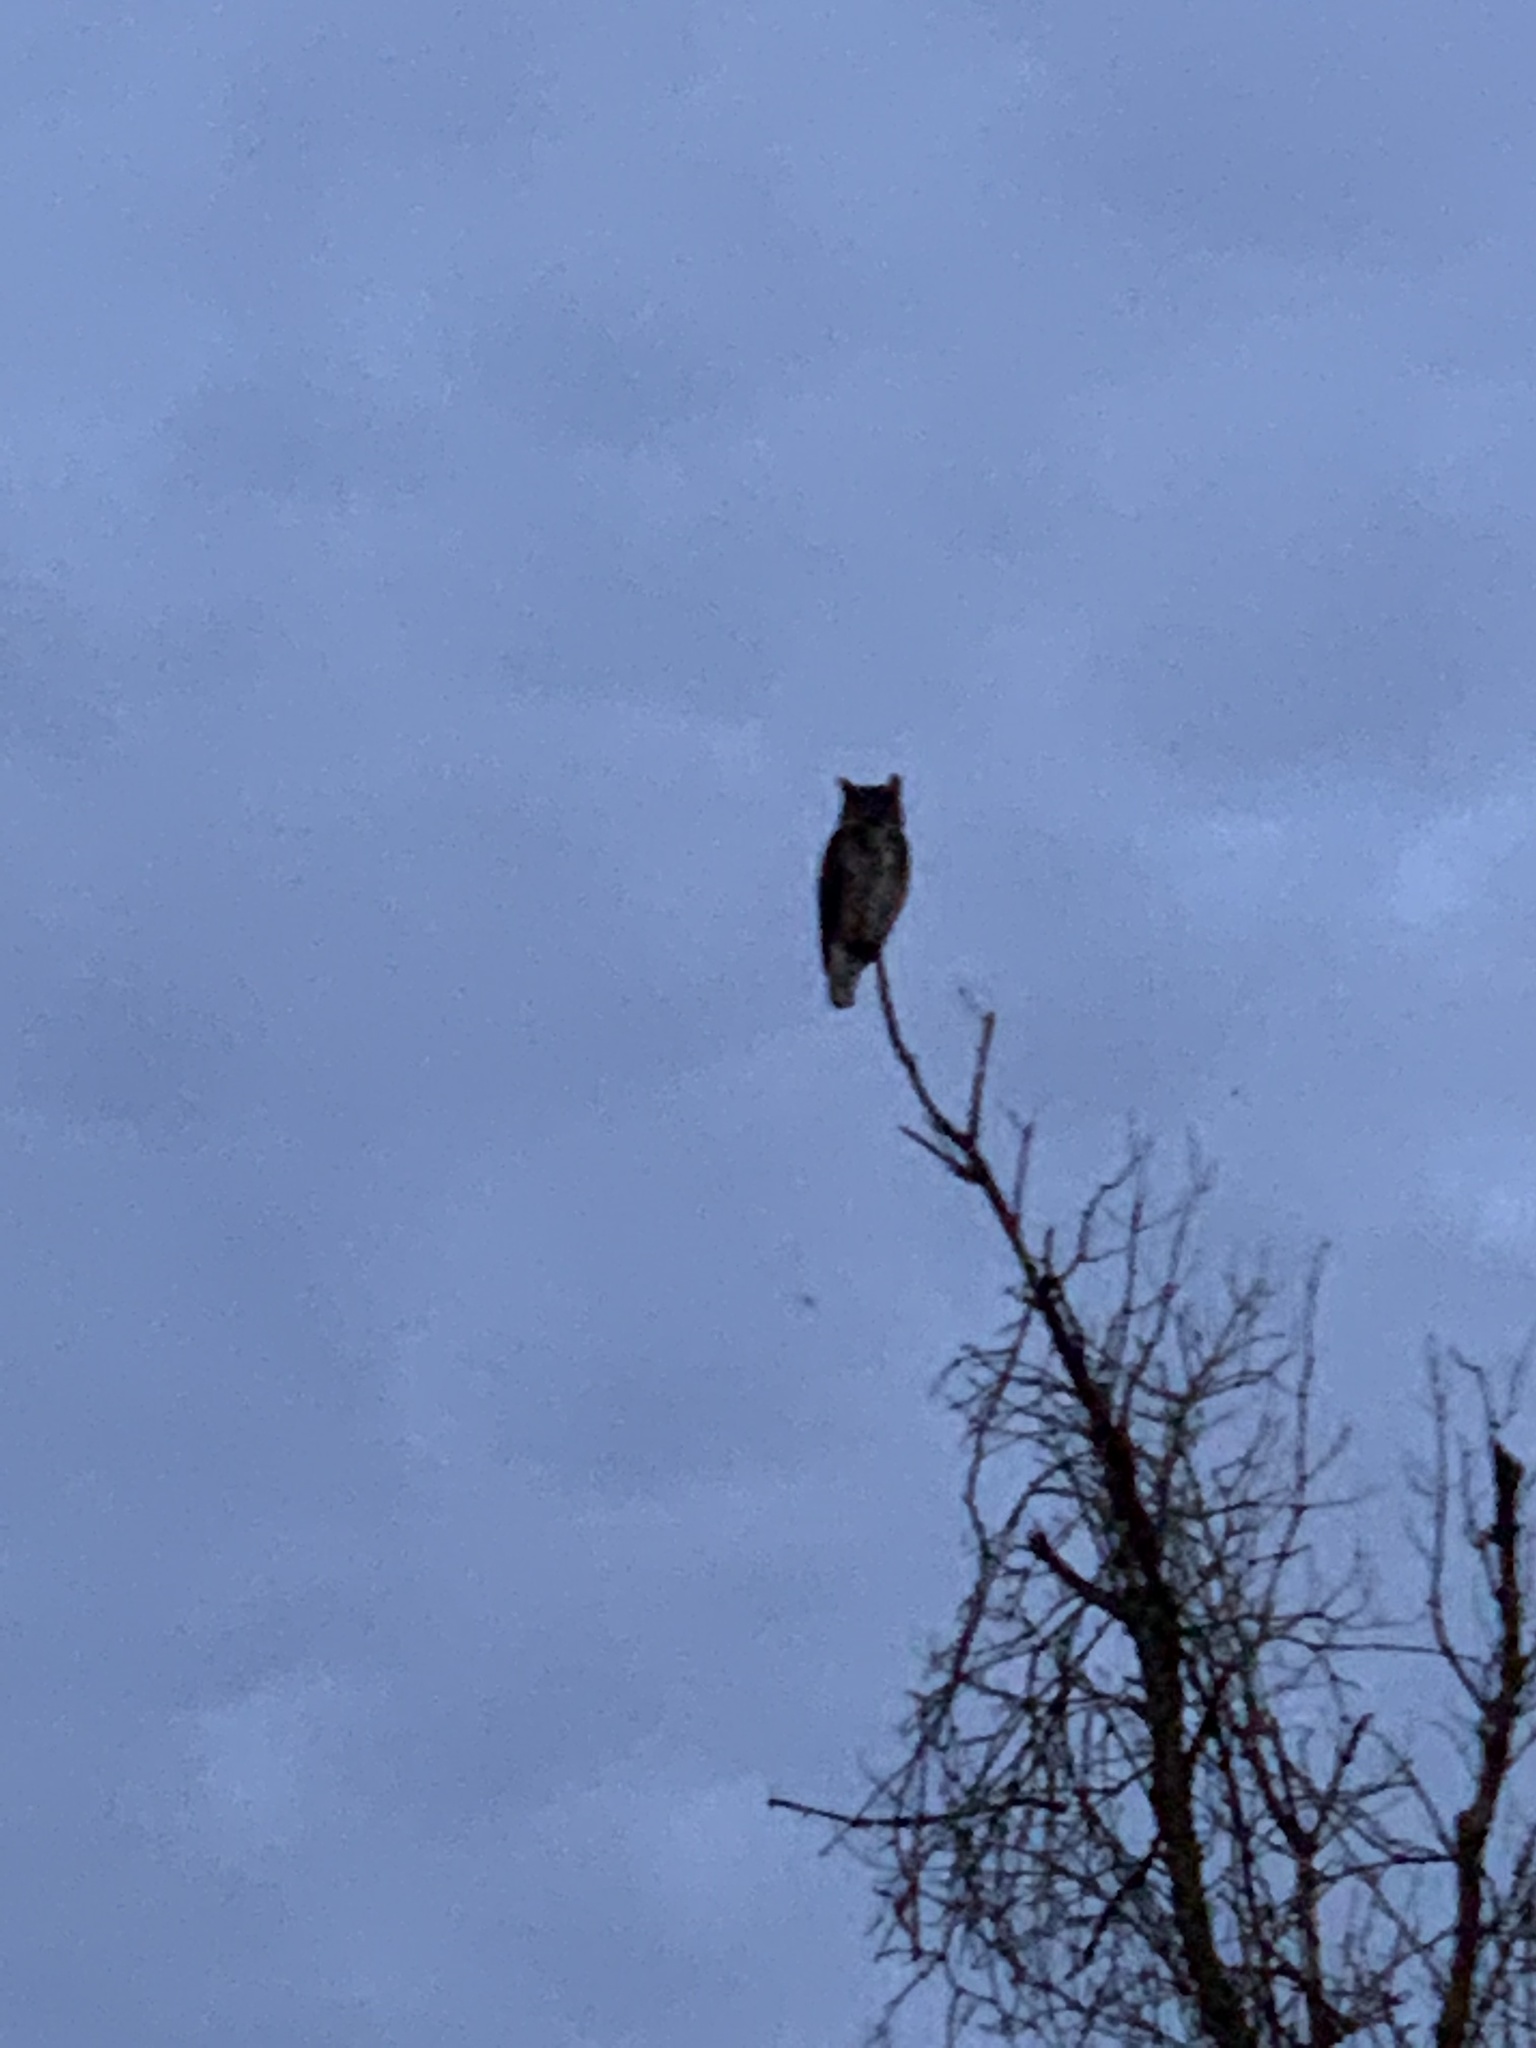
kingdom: Animalia
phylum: Chordata
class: Aves
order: Strigiformes
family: Strigidae
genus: Bubo
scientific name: Bubo virginianus
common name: Great horned owl
